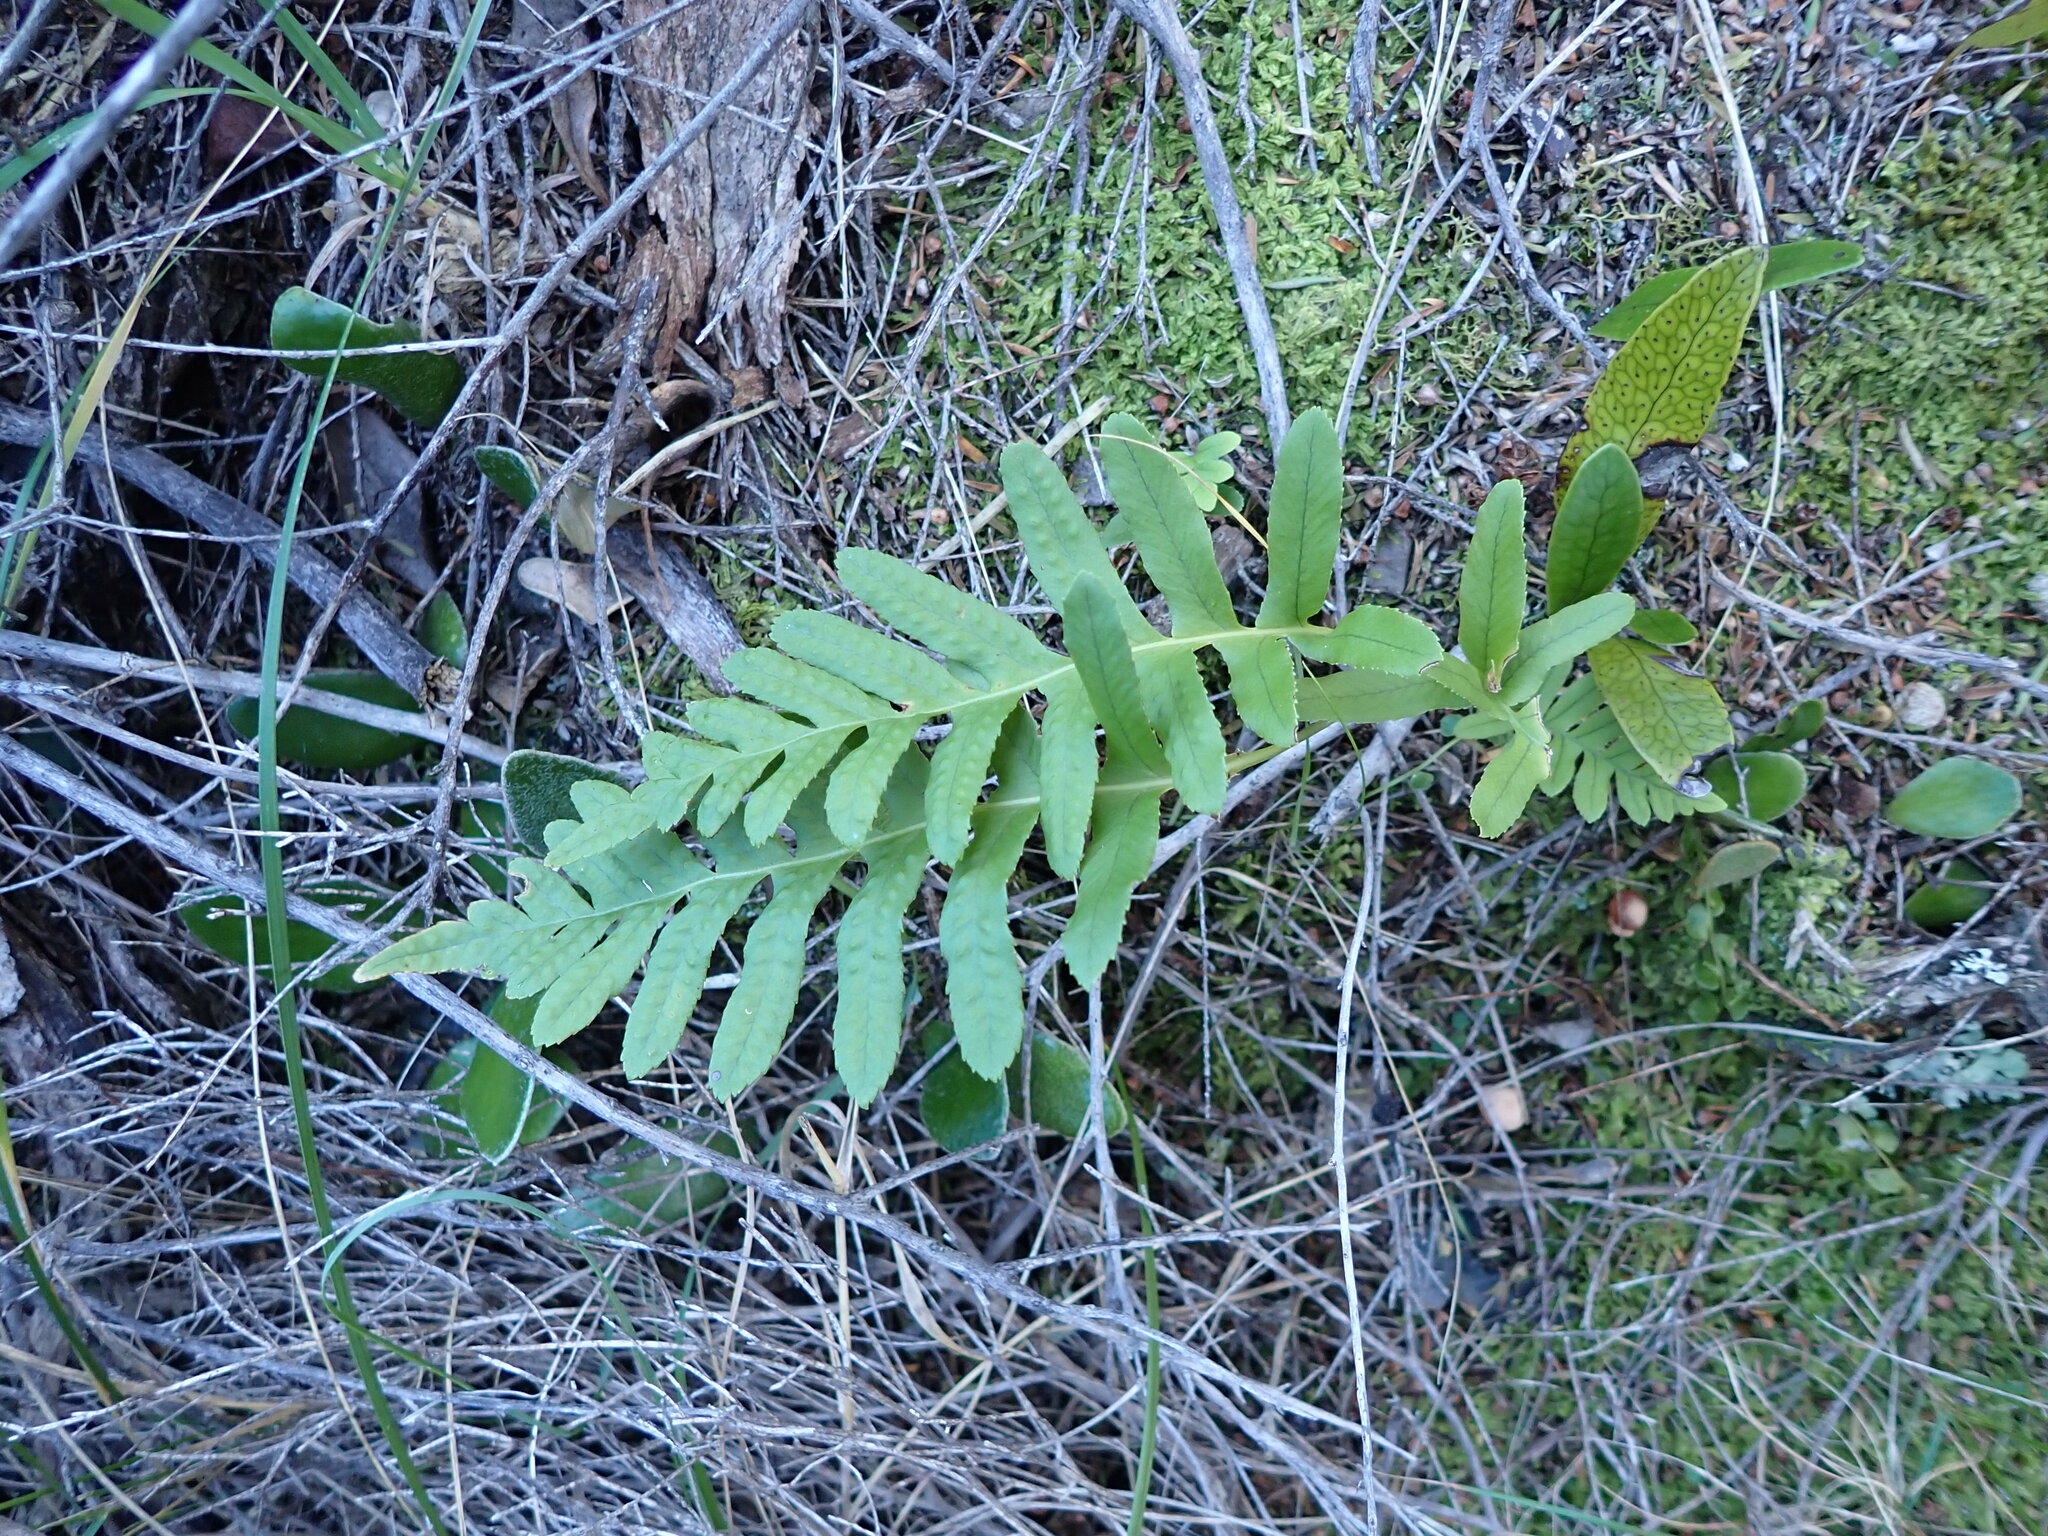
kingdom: Plantae
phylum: Tracheophyta
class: Polypodiopsida
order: Polypodiales
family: Polypodiaceae
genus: Polypodium
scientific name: Polypodium vulgare
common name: Common polypody
